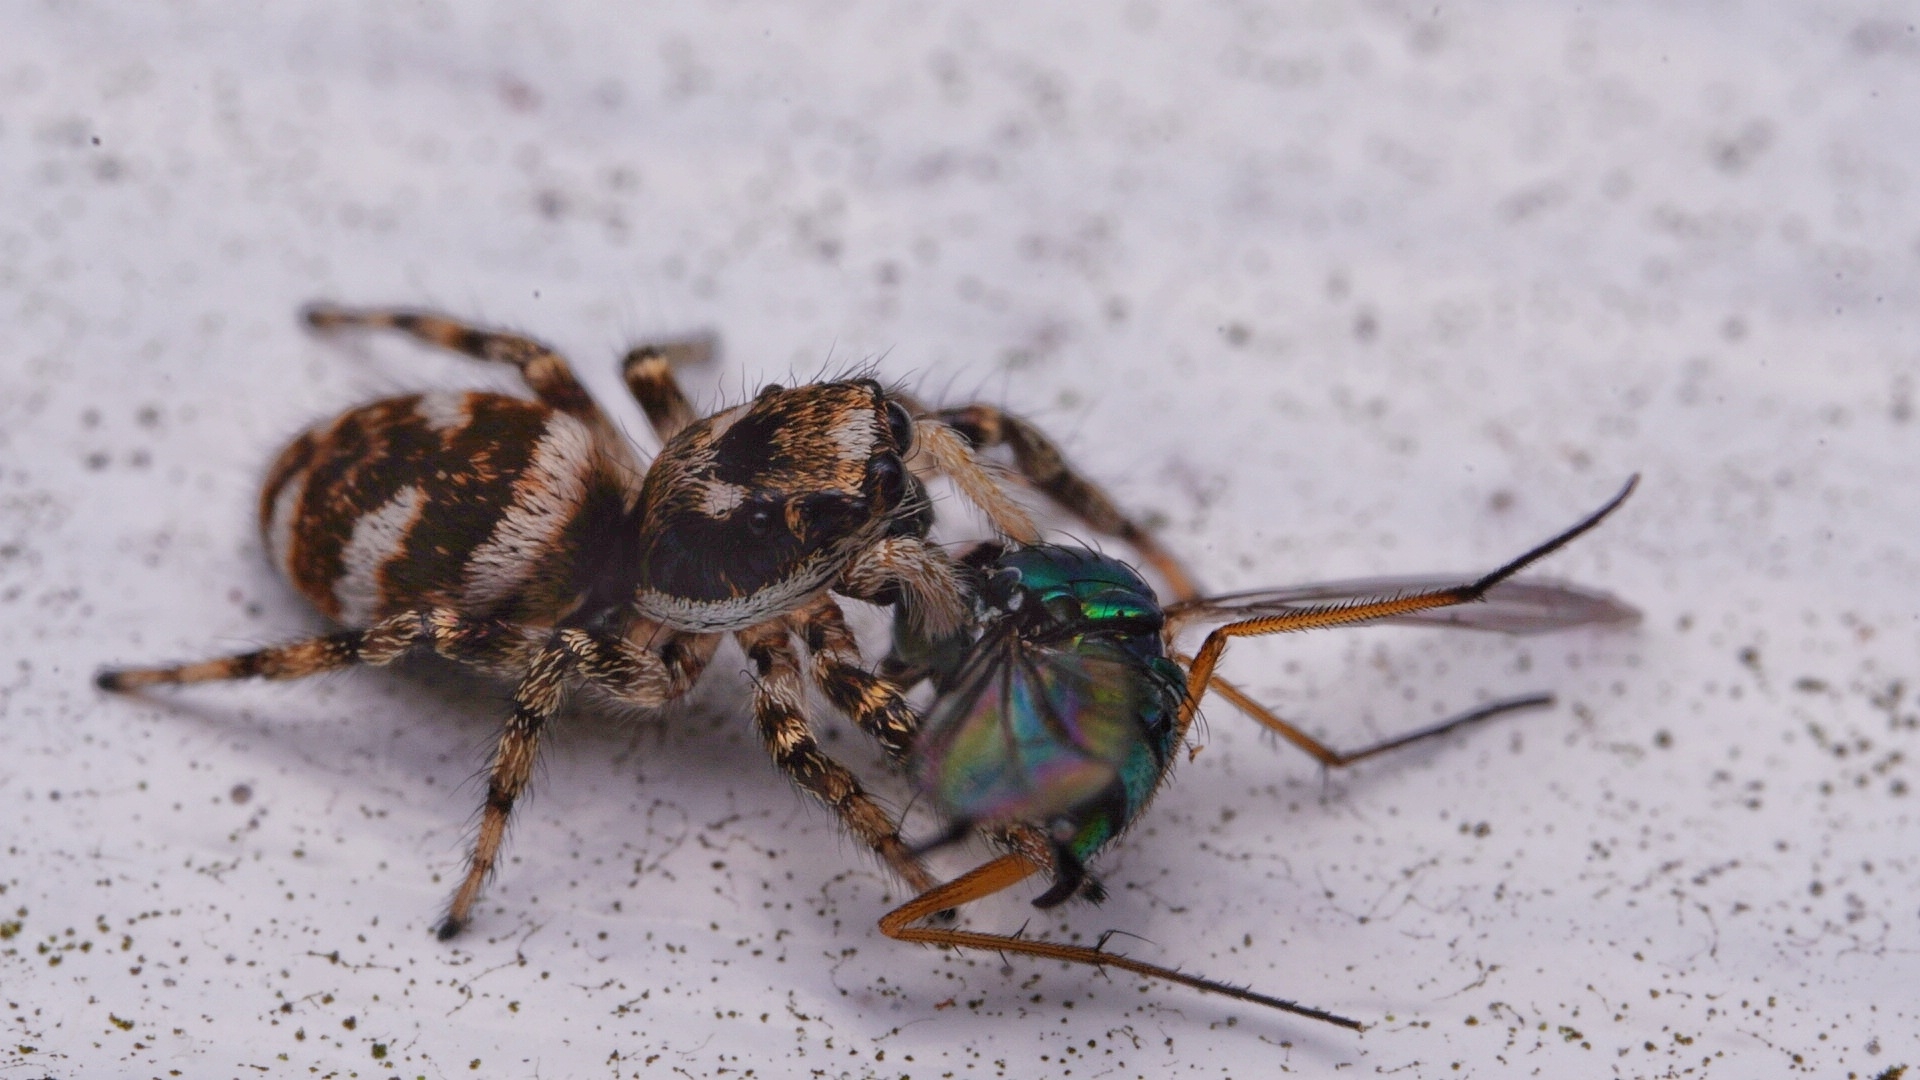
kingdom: Animalia
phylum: Arthropoda
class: Arachnida
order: Araneae
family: Salticidae
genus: Salticus
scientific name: Salticus scenicus
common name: Zebra jumper
